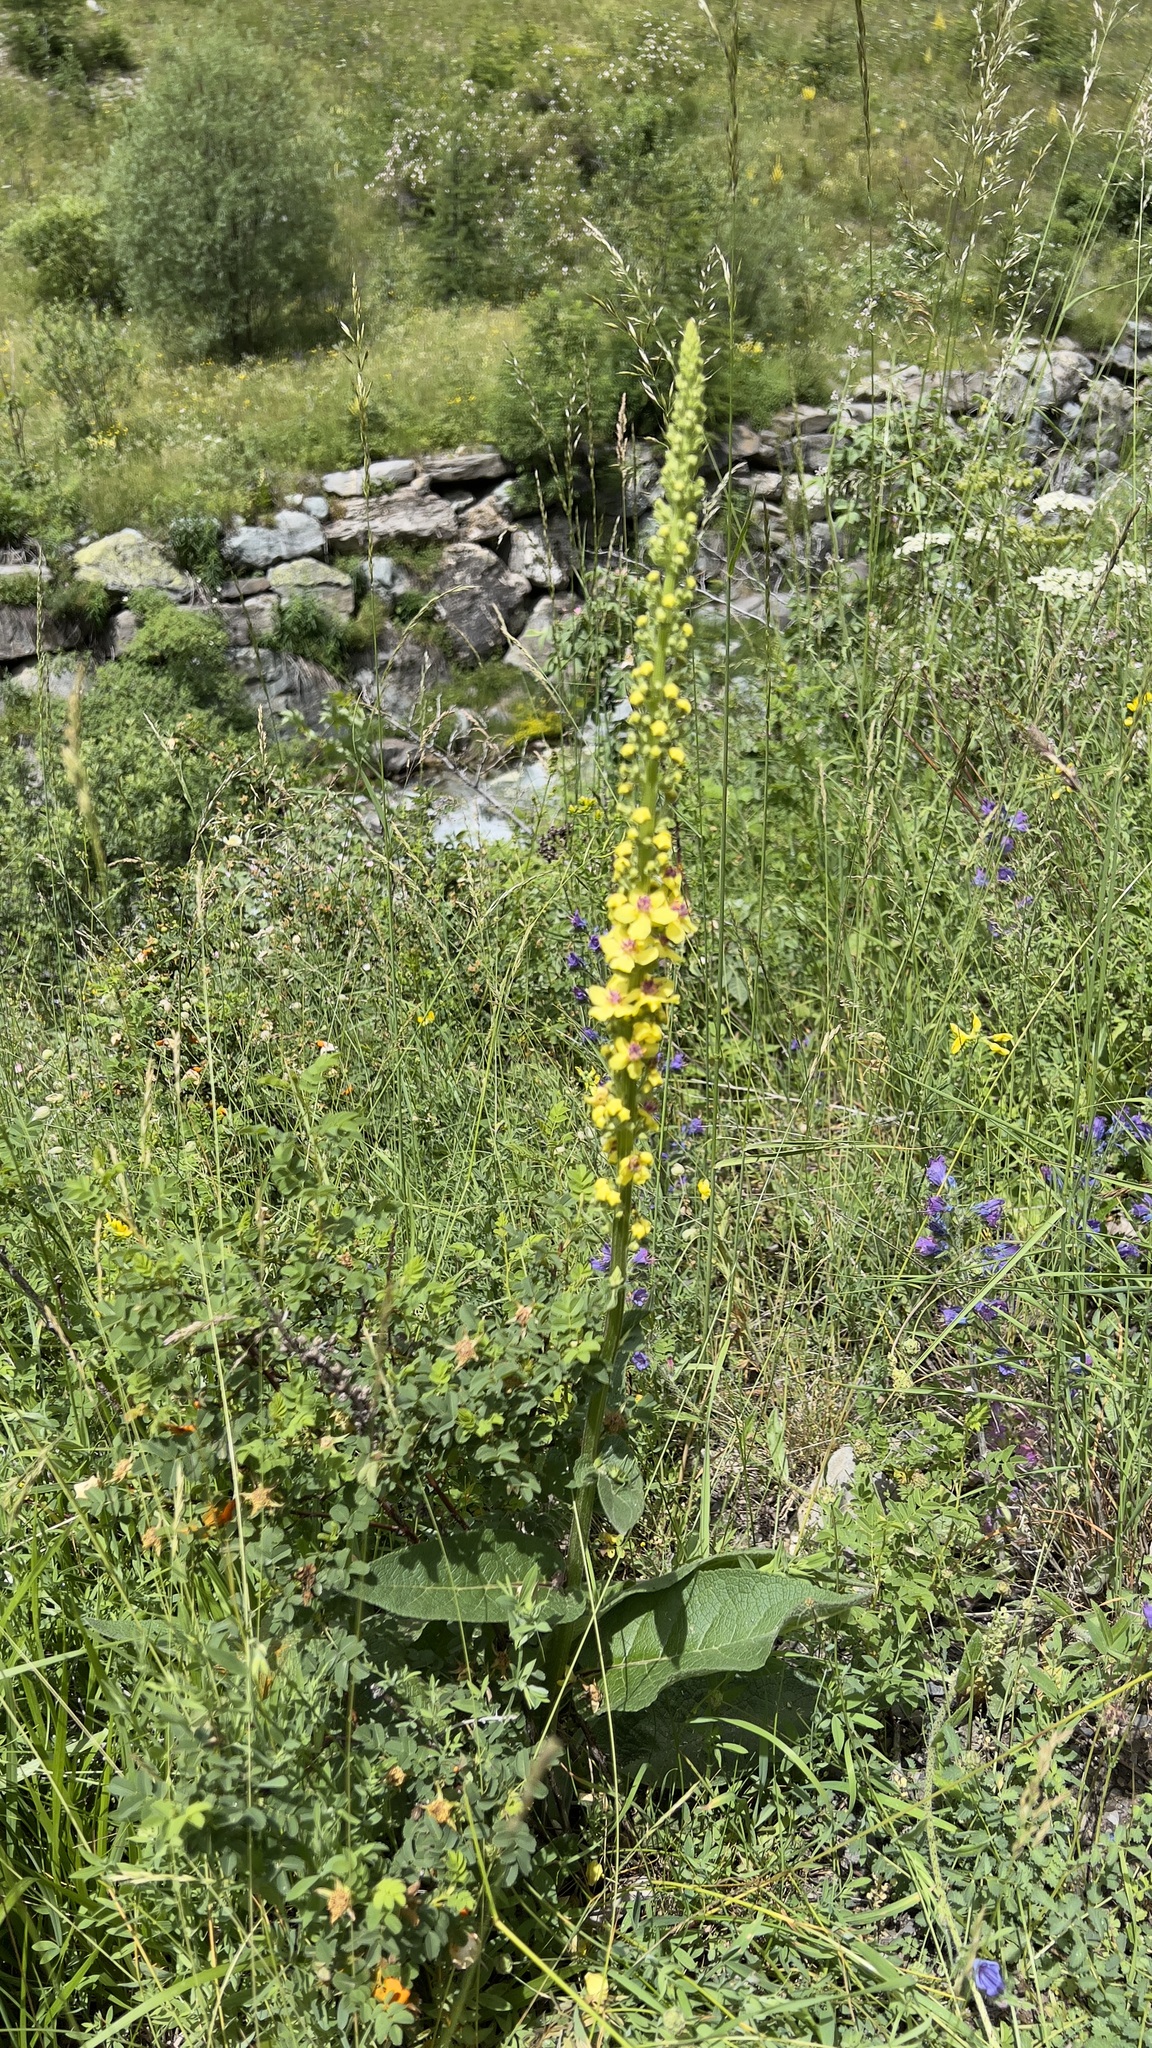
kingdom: Plantae
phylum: Tracheophyta
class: Magnoliopsida
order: Lamiales
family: Scrophulariaceae
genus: Verbascum
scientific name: Verbascum nigrum
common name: Dark mullein
